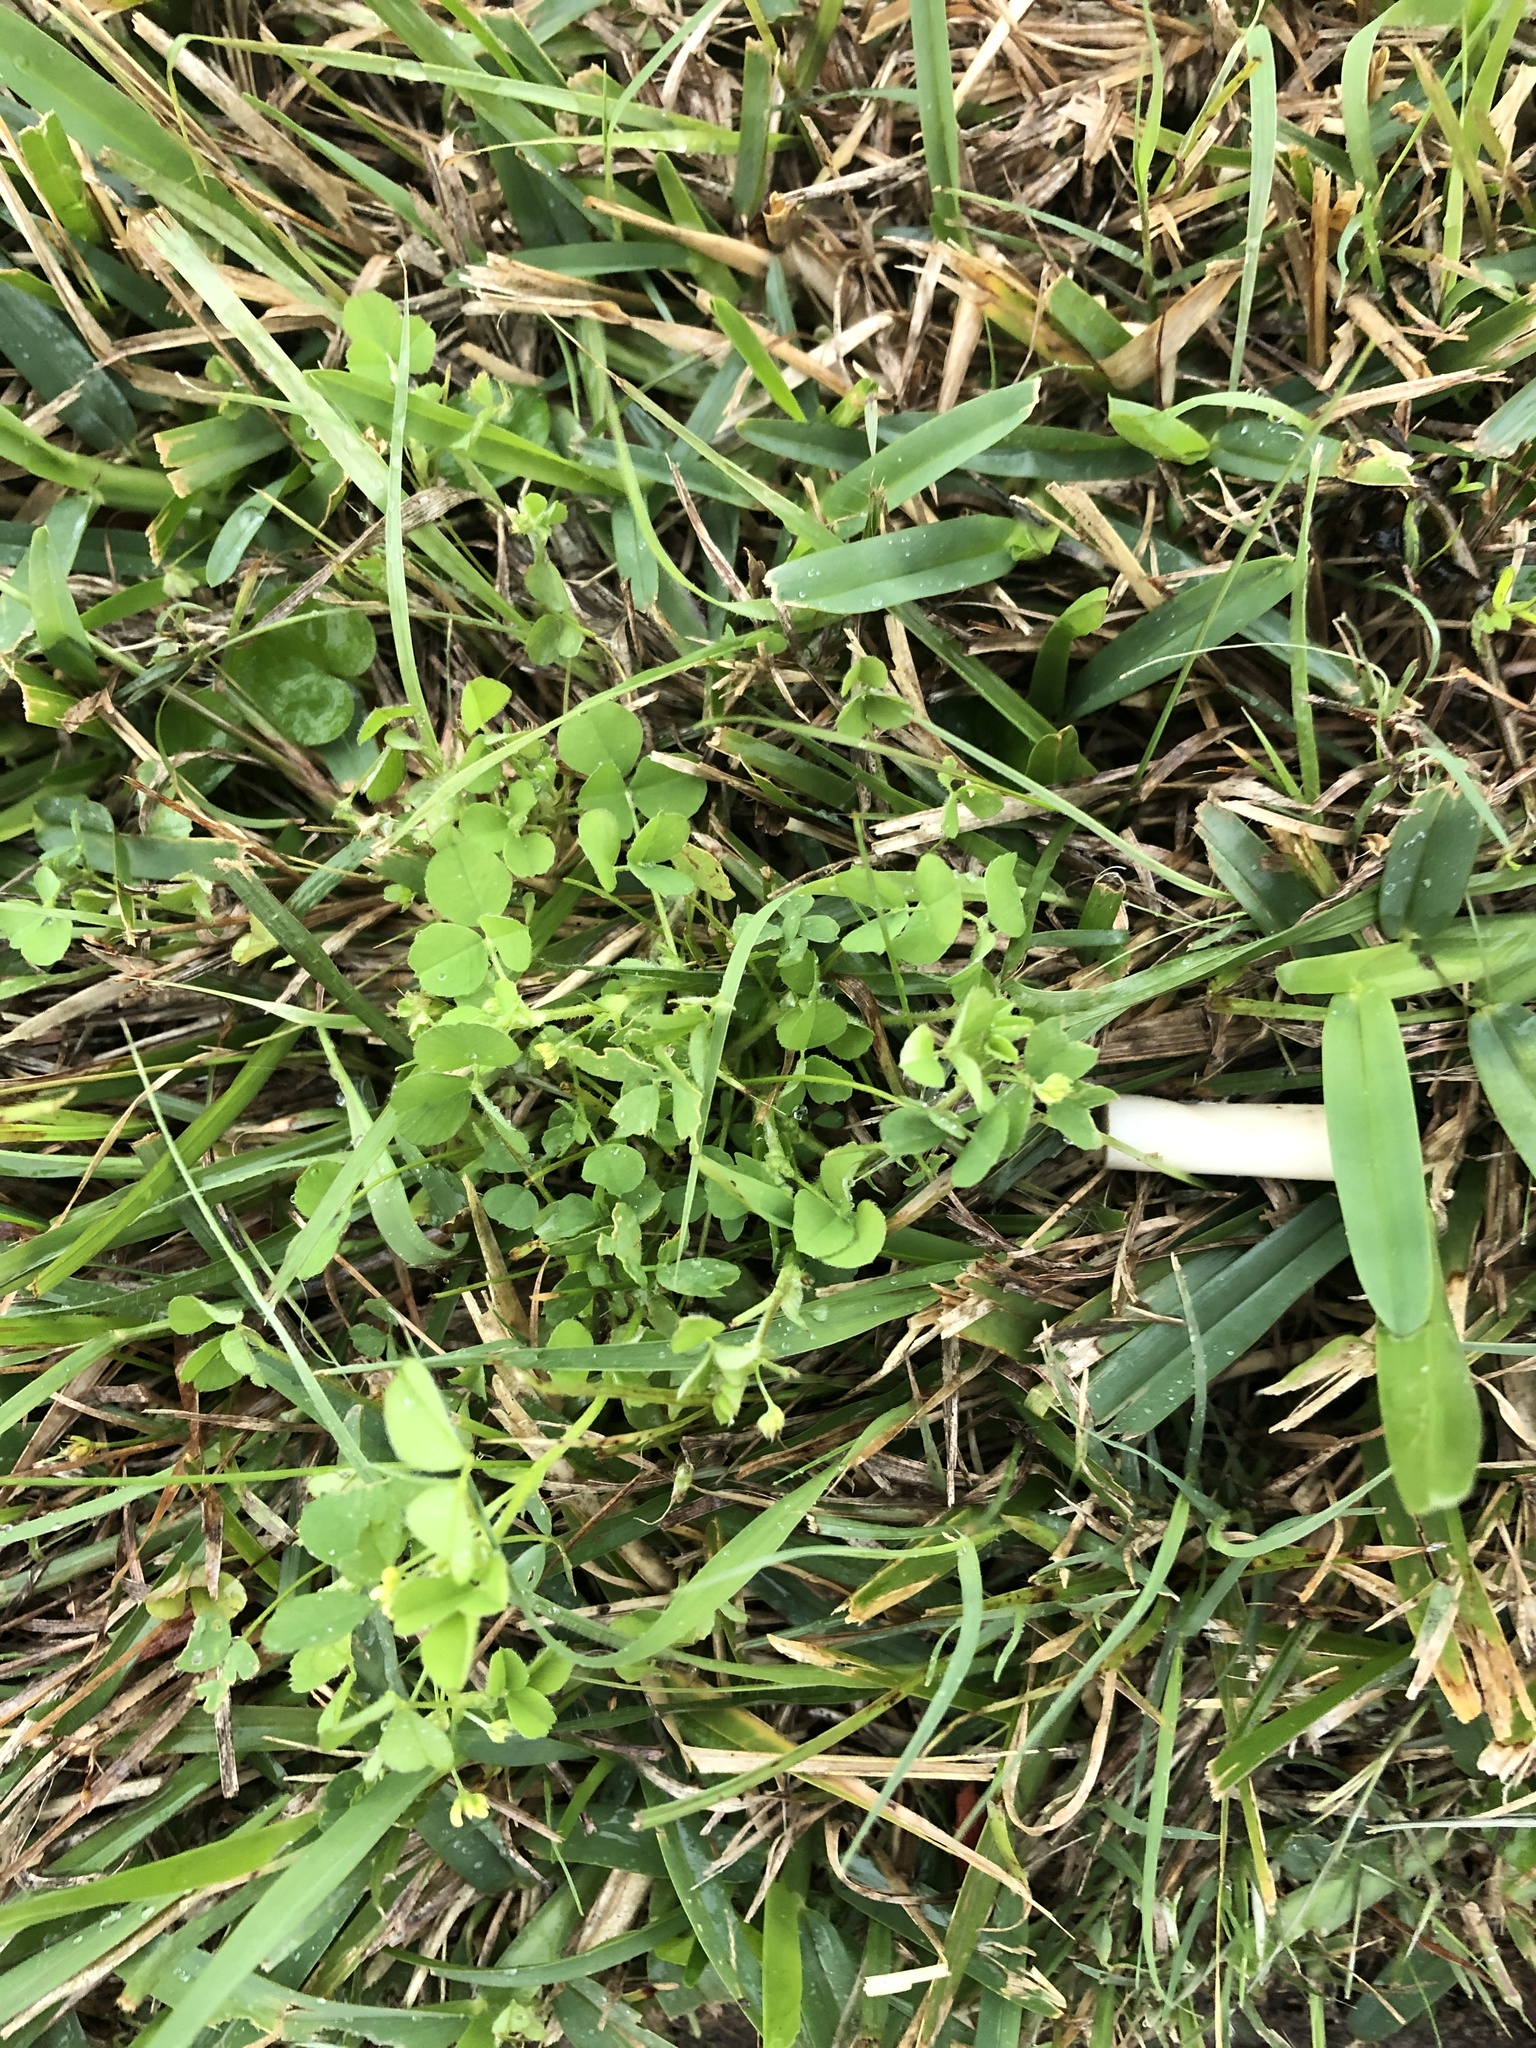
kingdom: Plantae
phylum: Tracheophyta
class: Magnoliopsida
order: Fabales
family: Fabaceae
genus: Medicago
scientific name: Medicago lupulina
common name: Black medick
